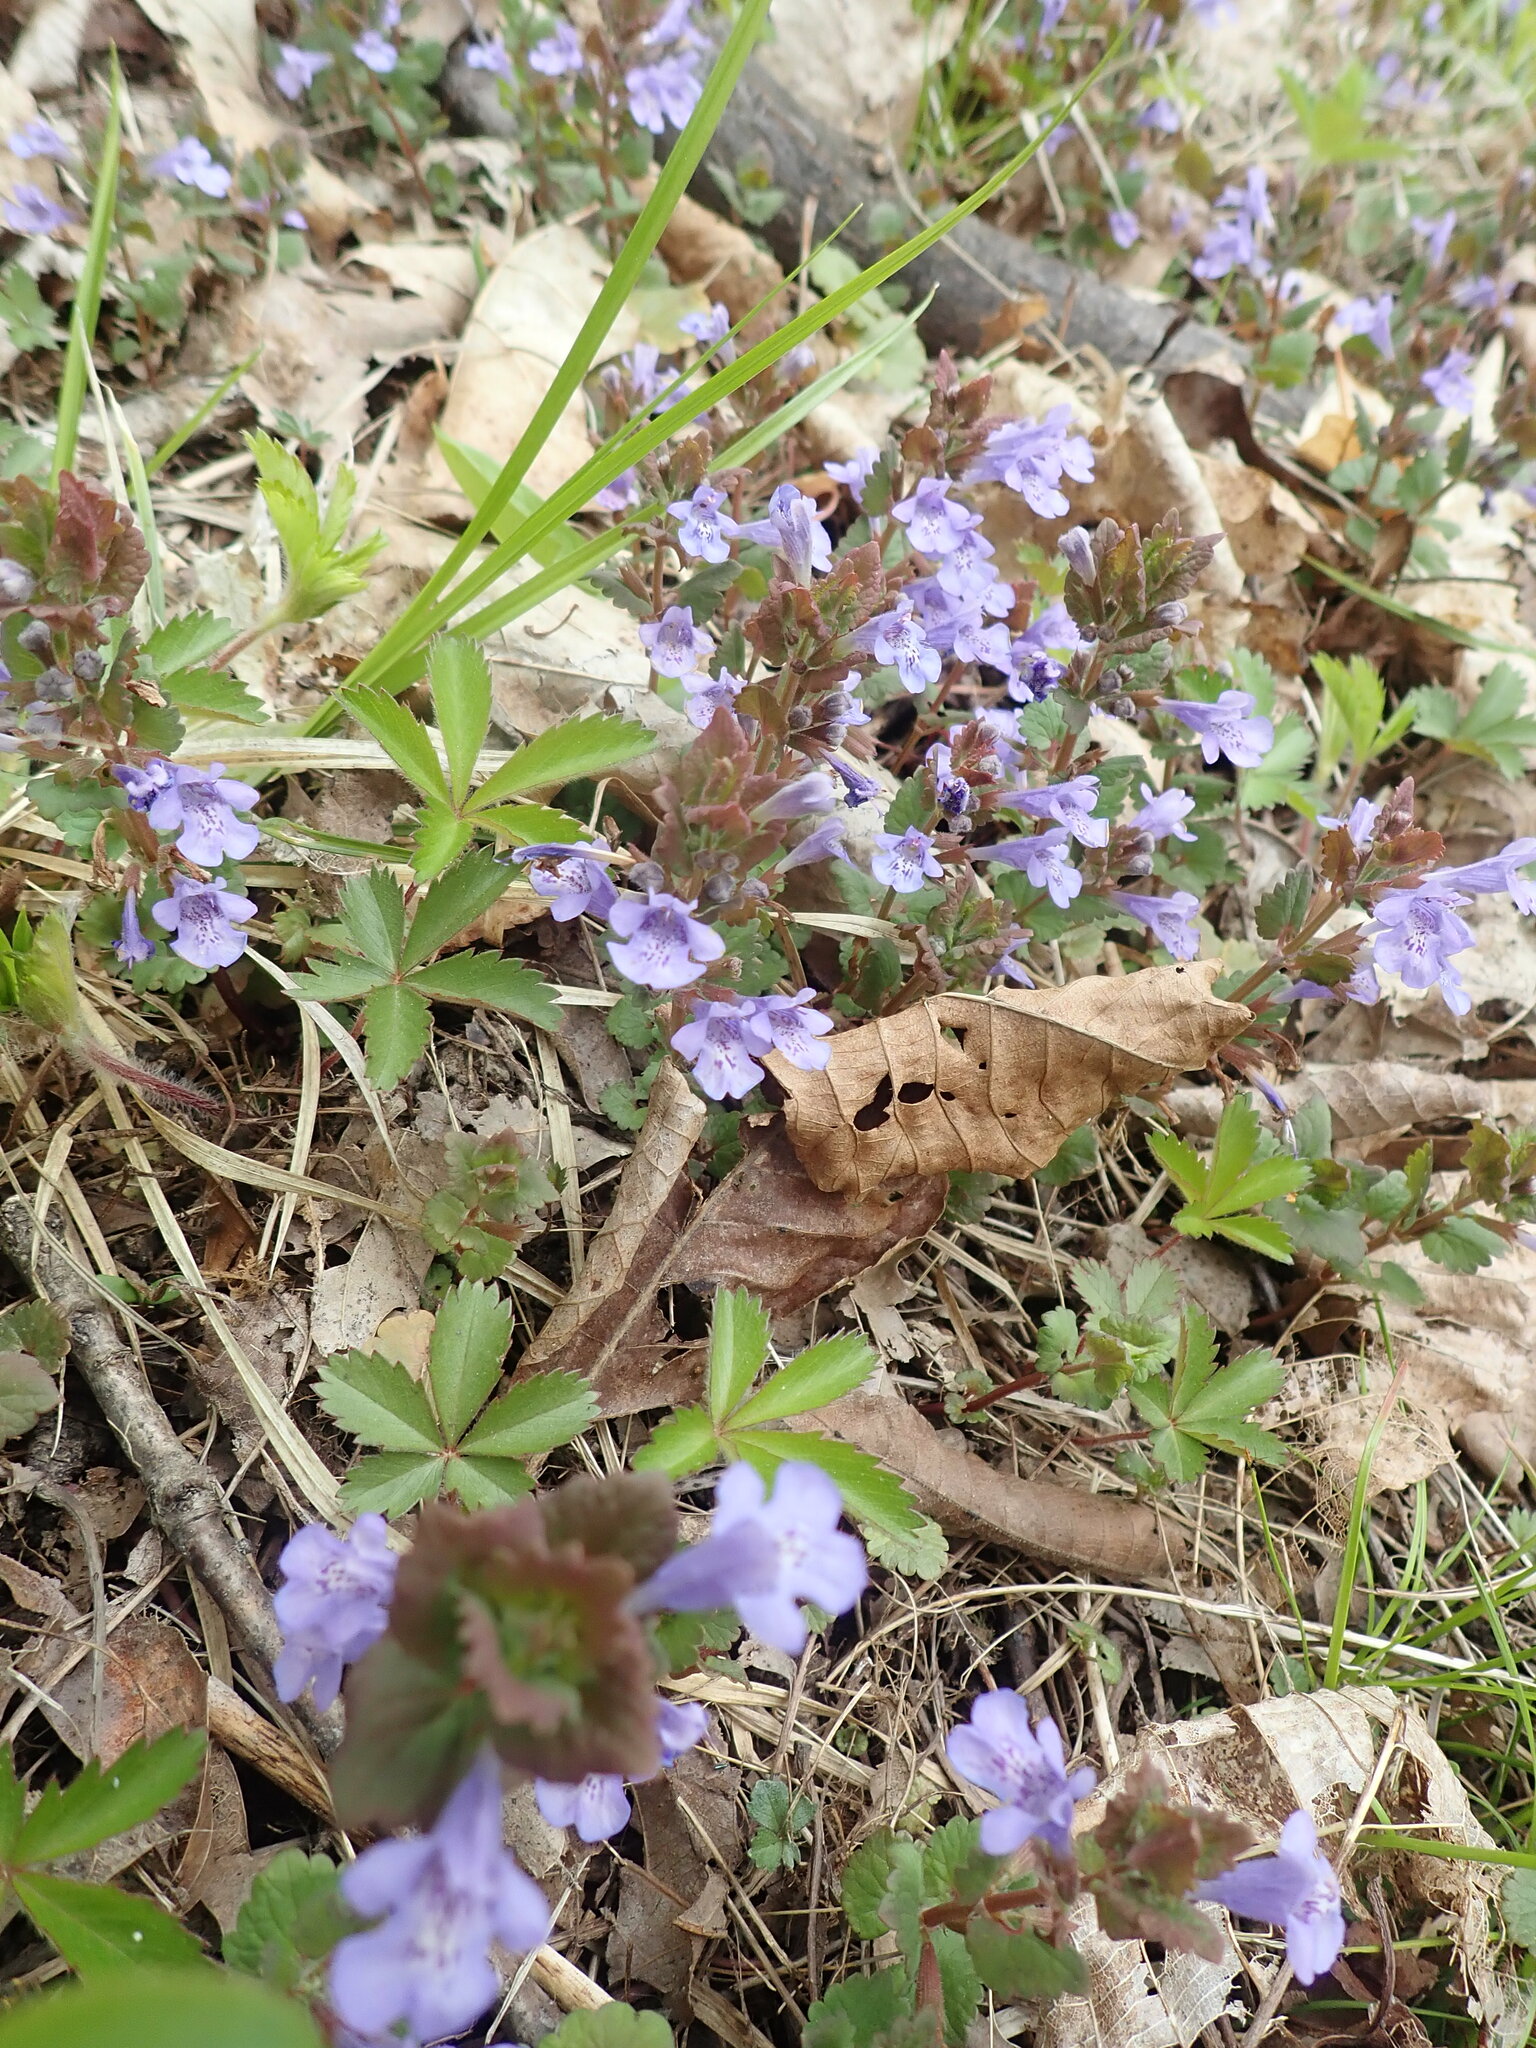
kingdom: Plantae
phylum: Tracheophyta
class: Magnoliopsida
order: Lamiales
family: Lamiaceae
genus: Glechoma
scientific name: Glechoma hederacea
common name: Ground ivy
